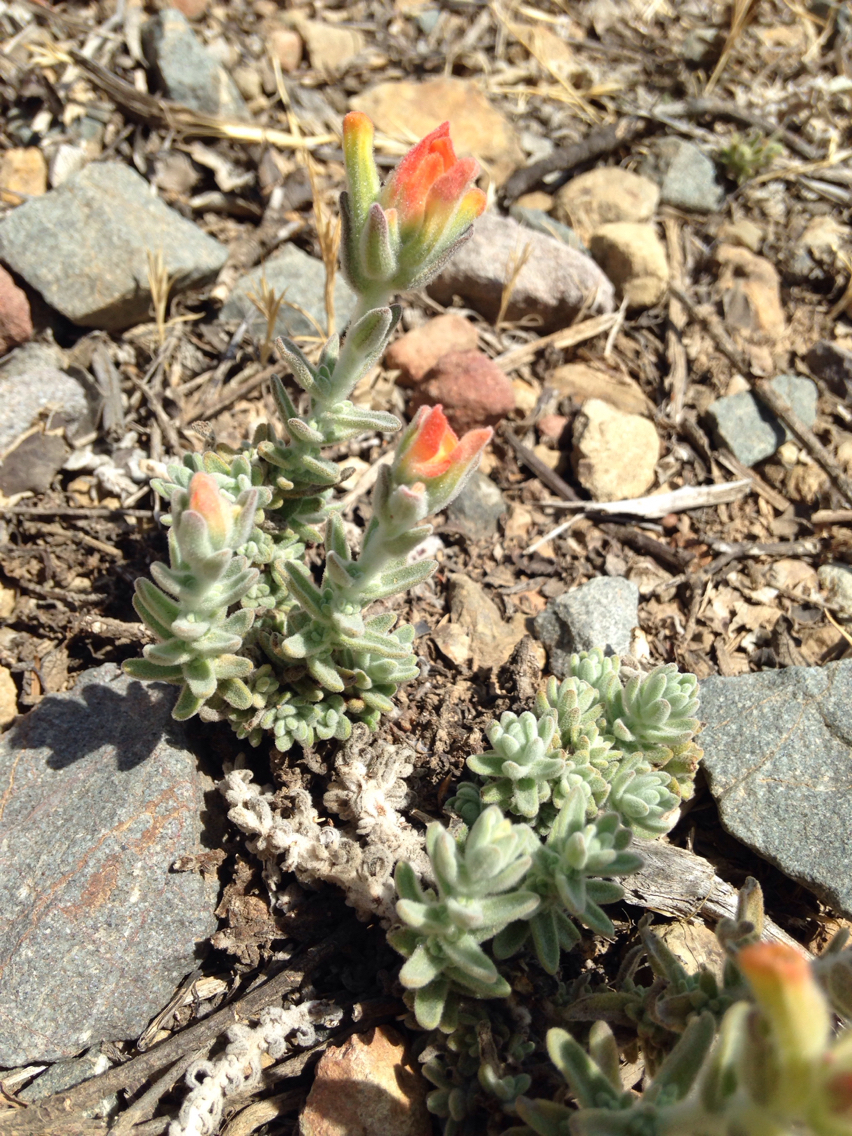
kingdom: Plantae
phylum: Tracheophyta
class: Magnoliopsida
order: Lamiales
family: Orobanchaceae
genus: Castilleja
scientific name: Castilleja foliolosa
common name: Woolly indian paintbrush
